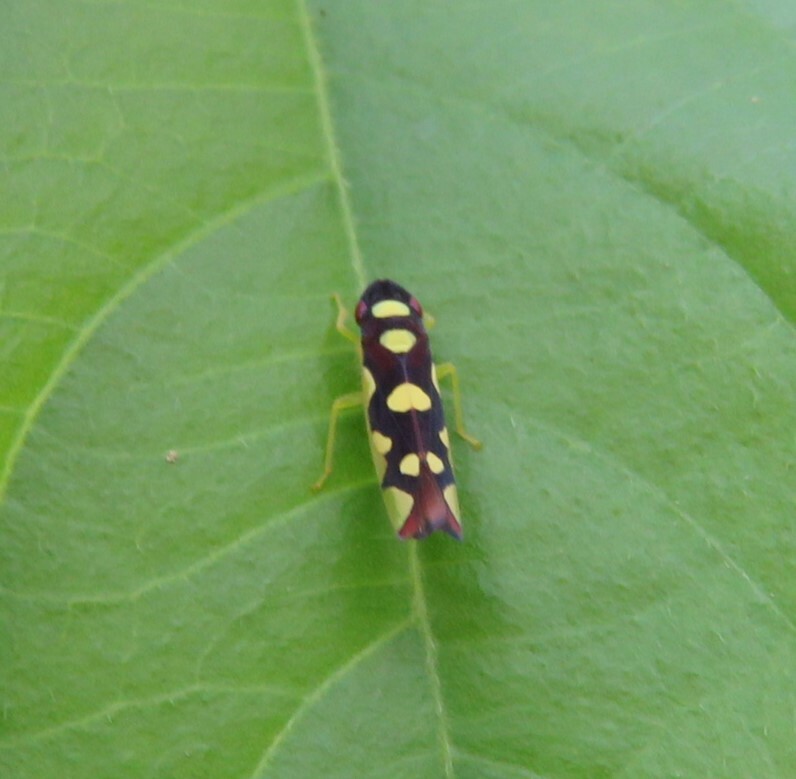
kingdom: Animalia
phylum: Arthropoda
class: Insecta
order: Hemiptera
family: Cicadellidae
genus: Baleja
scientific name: Baleja flavoguttata
